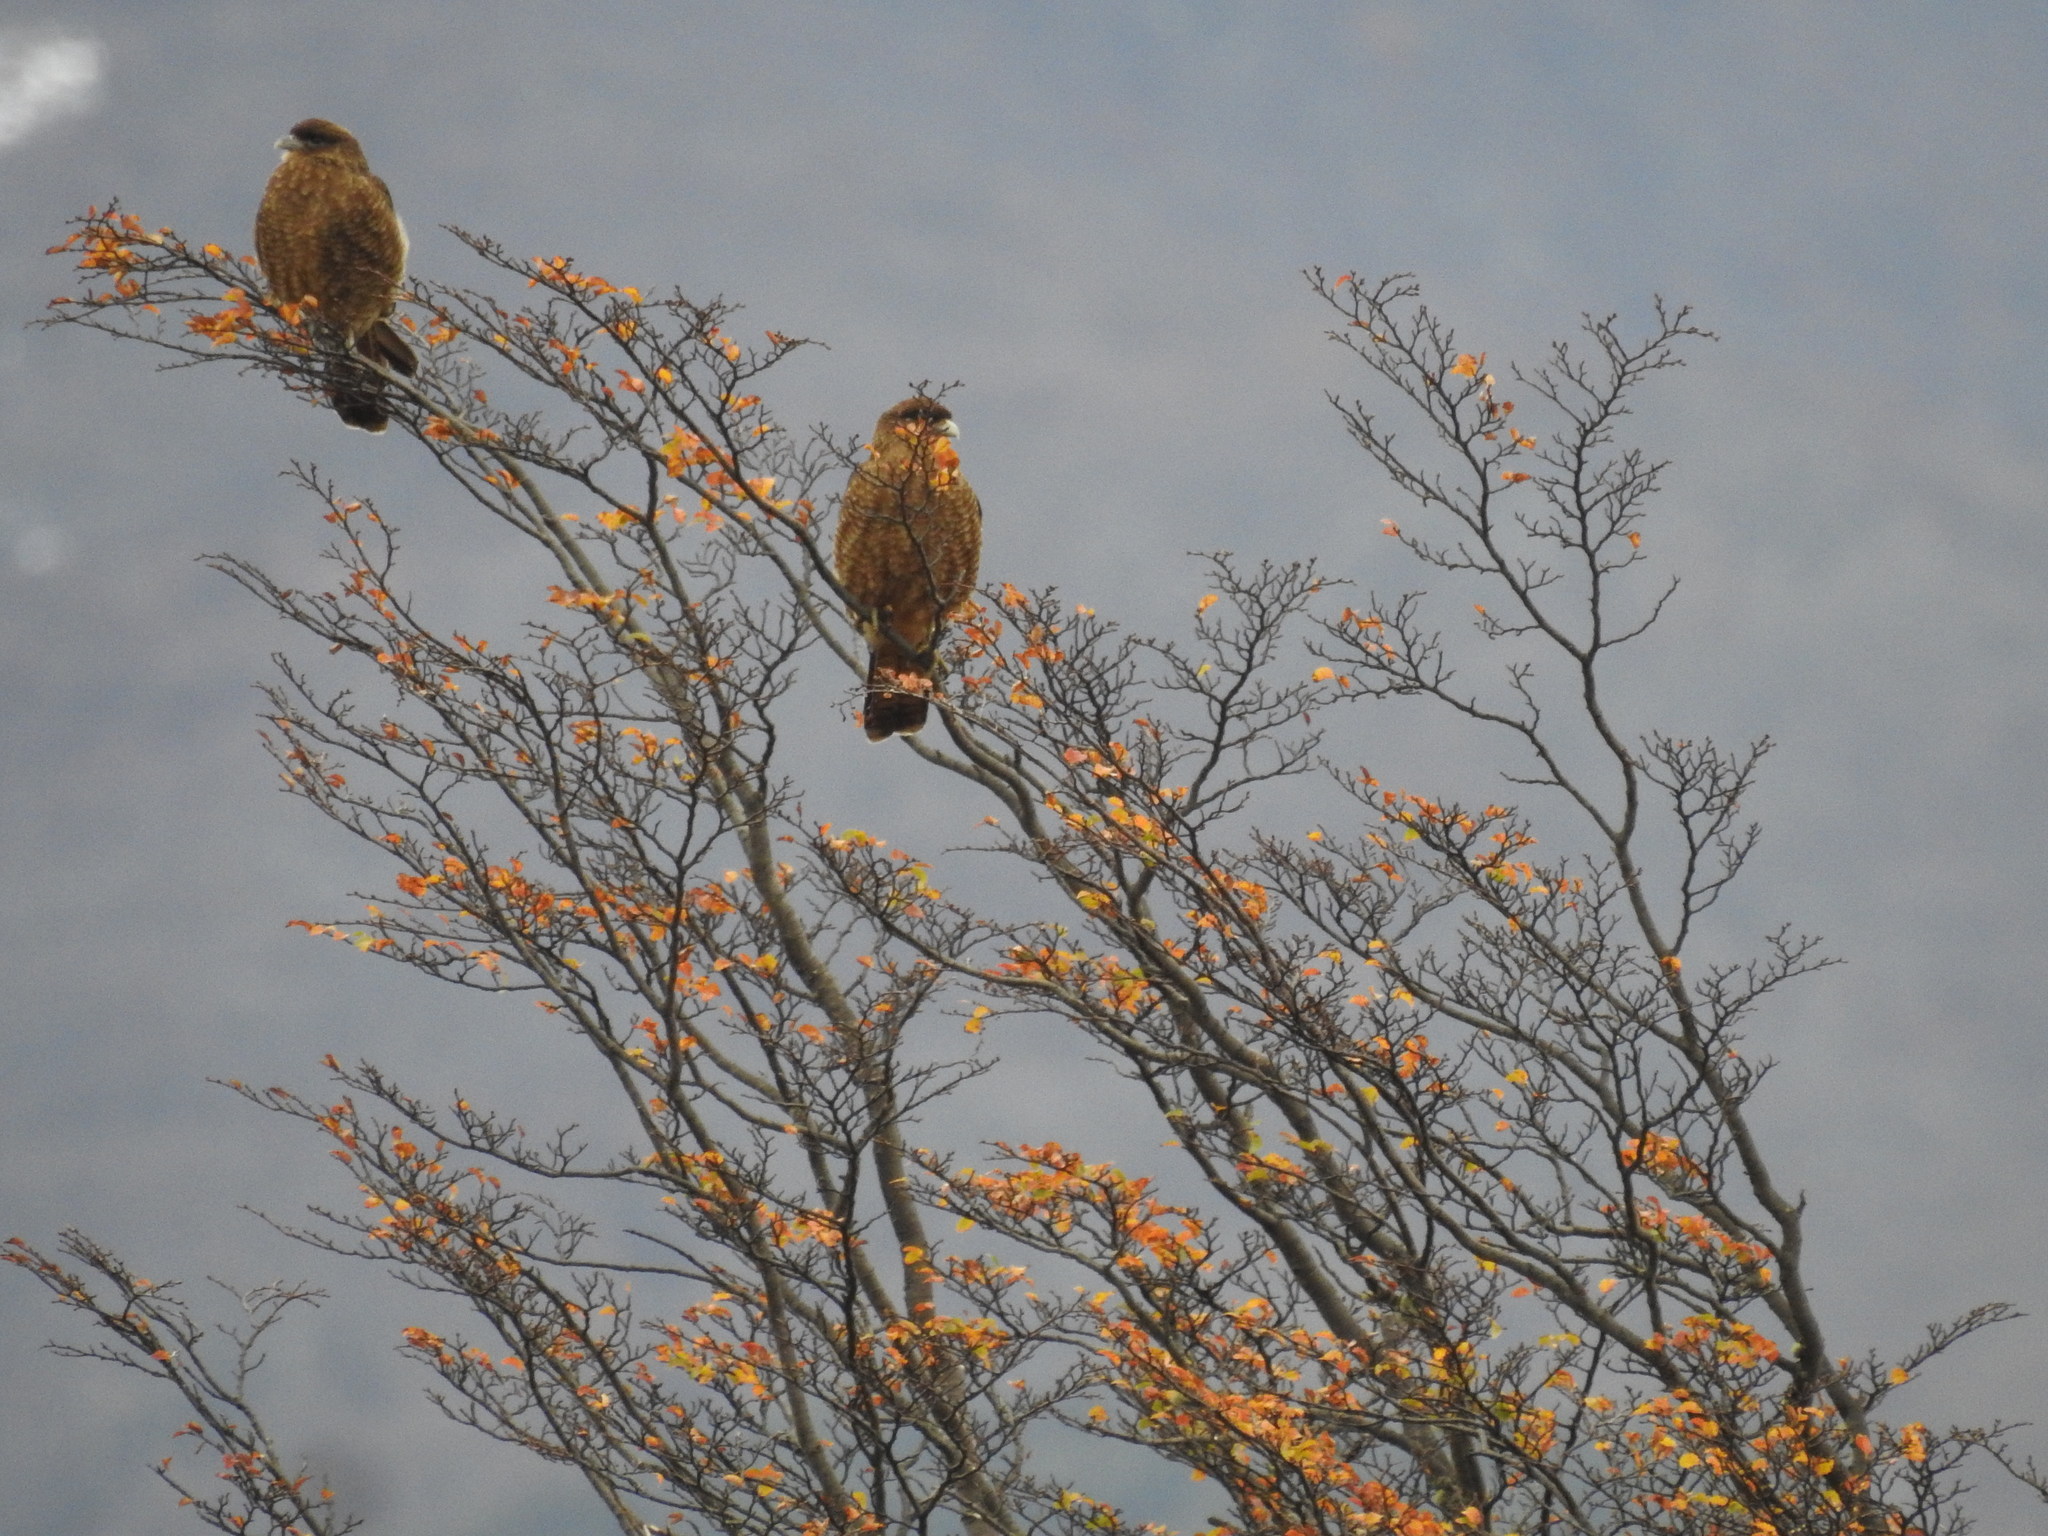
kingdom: Animalia
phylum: Chordata
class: Aves
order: Falconiformes
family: Falconidae
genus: Daptrius
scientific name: Daptrius
